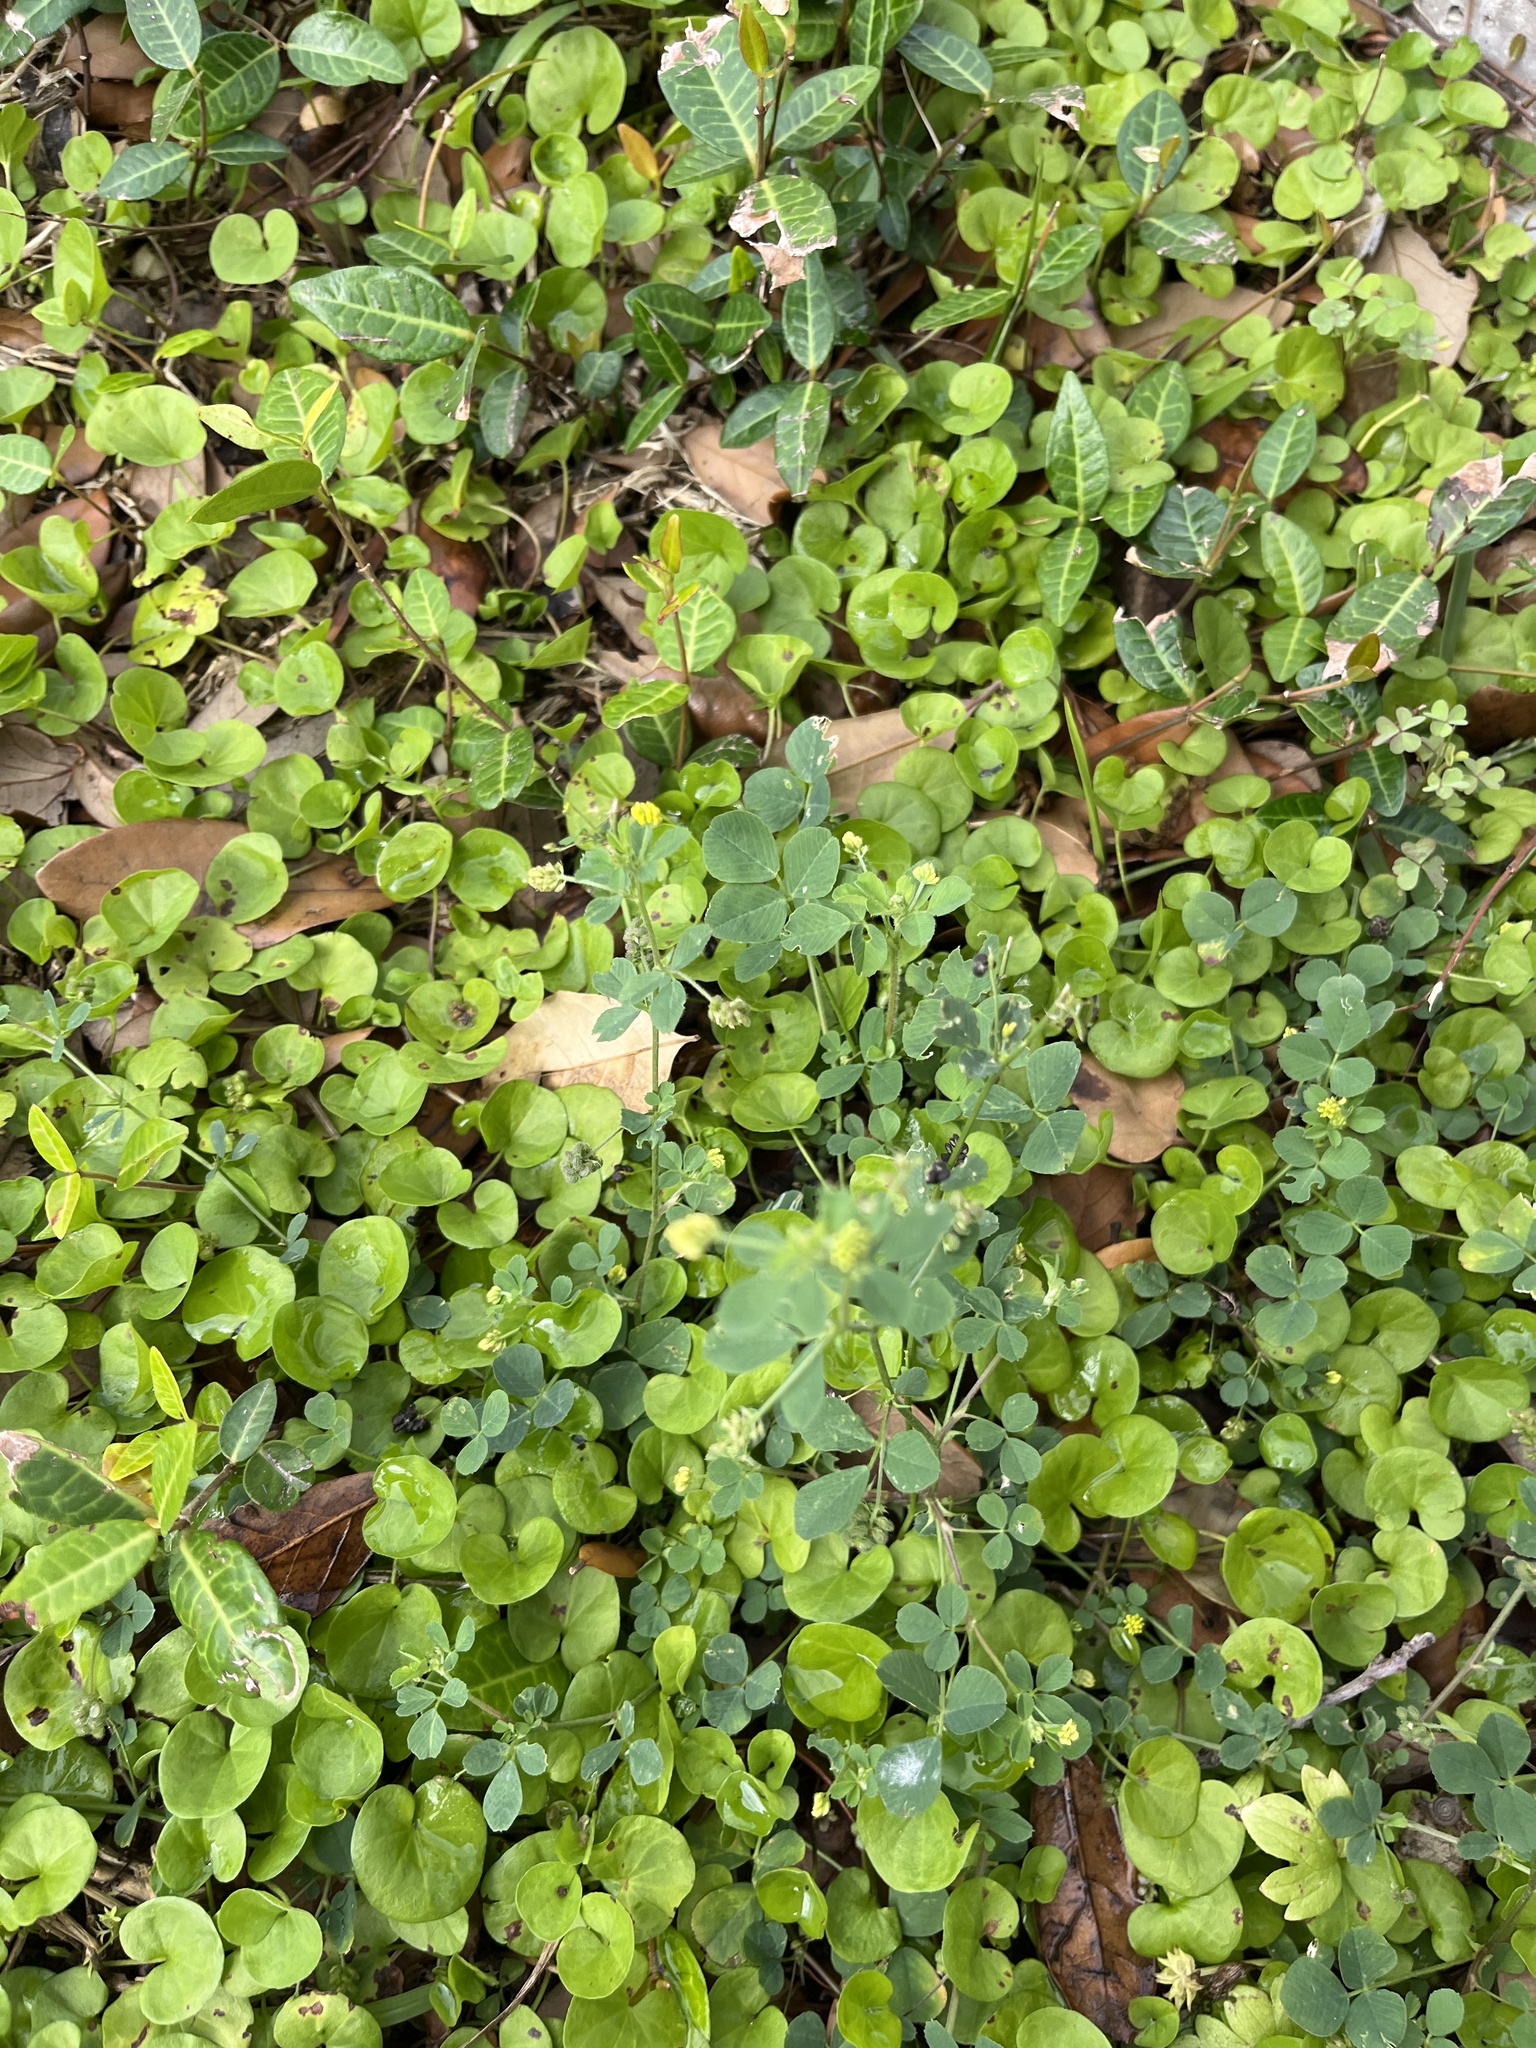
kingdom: Plantae
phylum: Tracheophyta
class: Magnoliopsida
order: Fabales
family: Fabaceae
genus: Medicago
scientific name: Medicago lupulina
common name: Black medick
